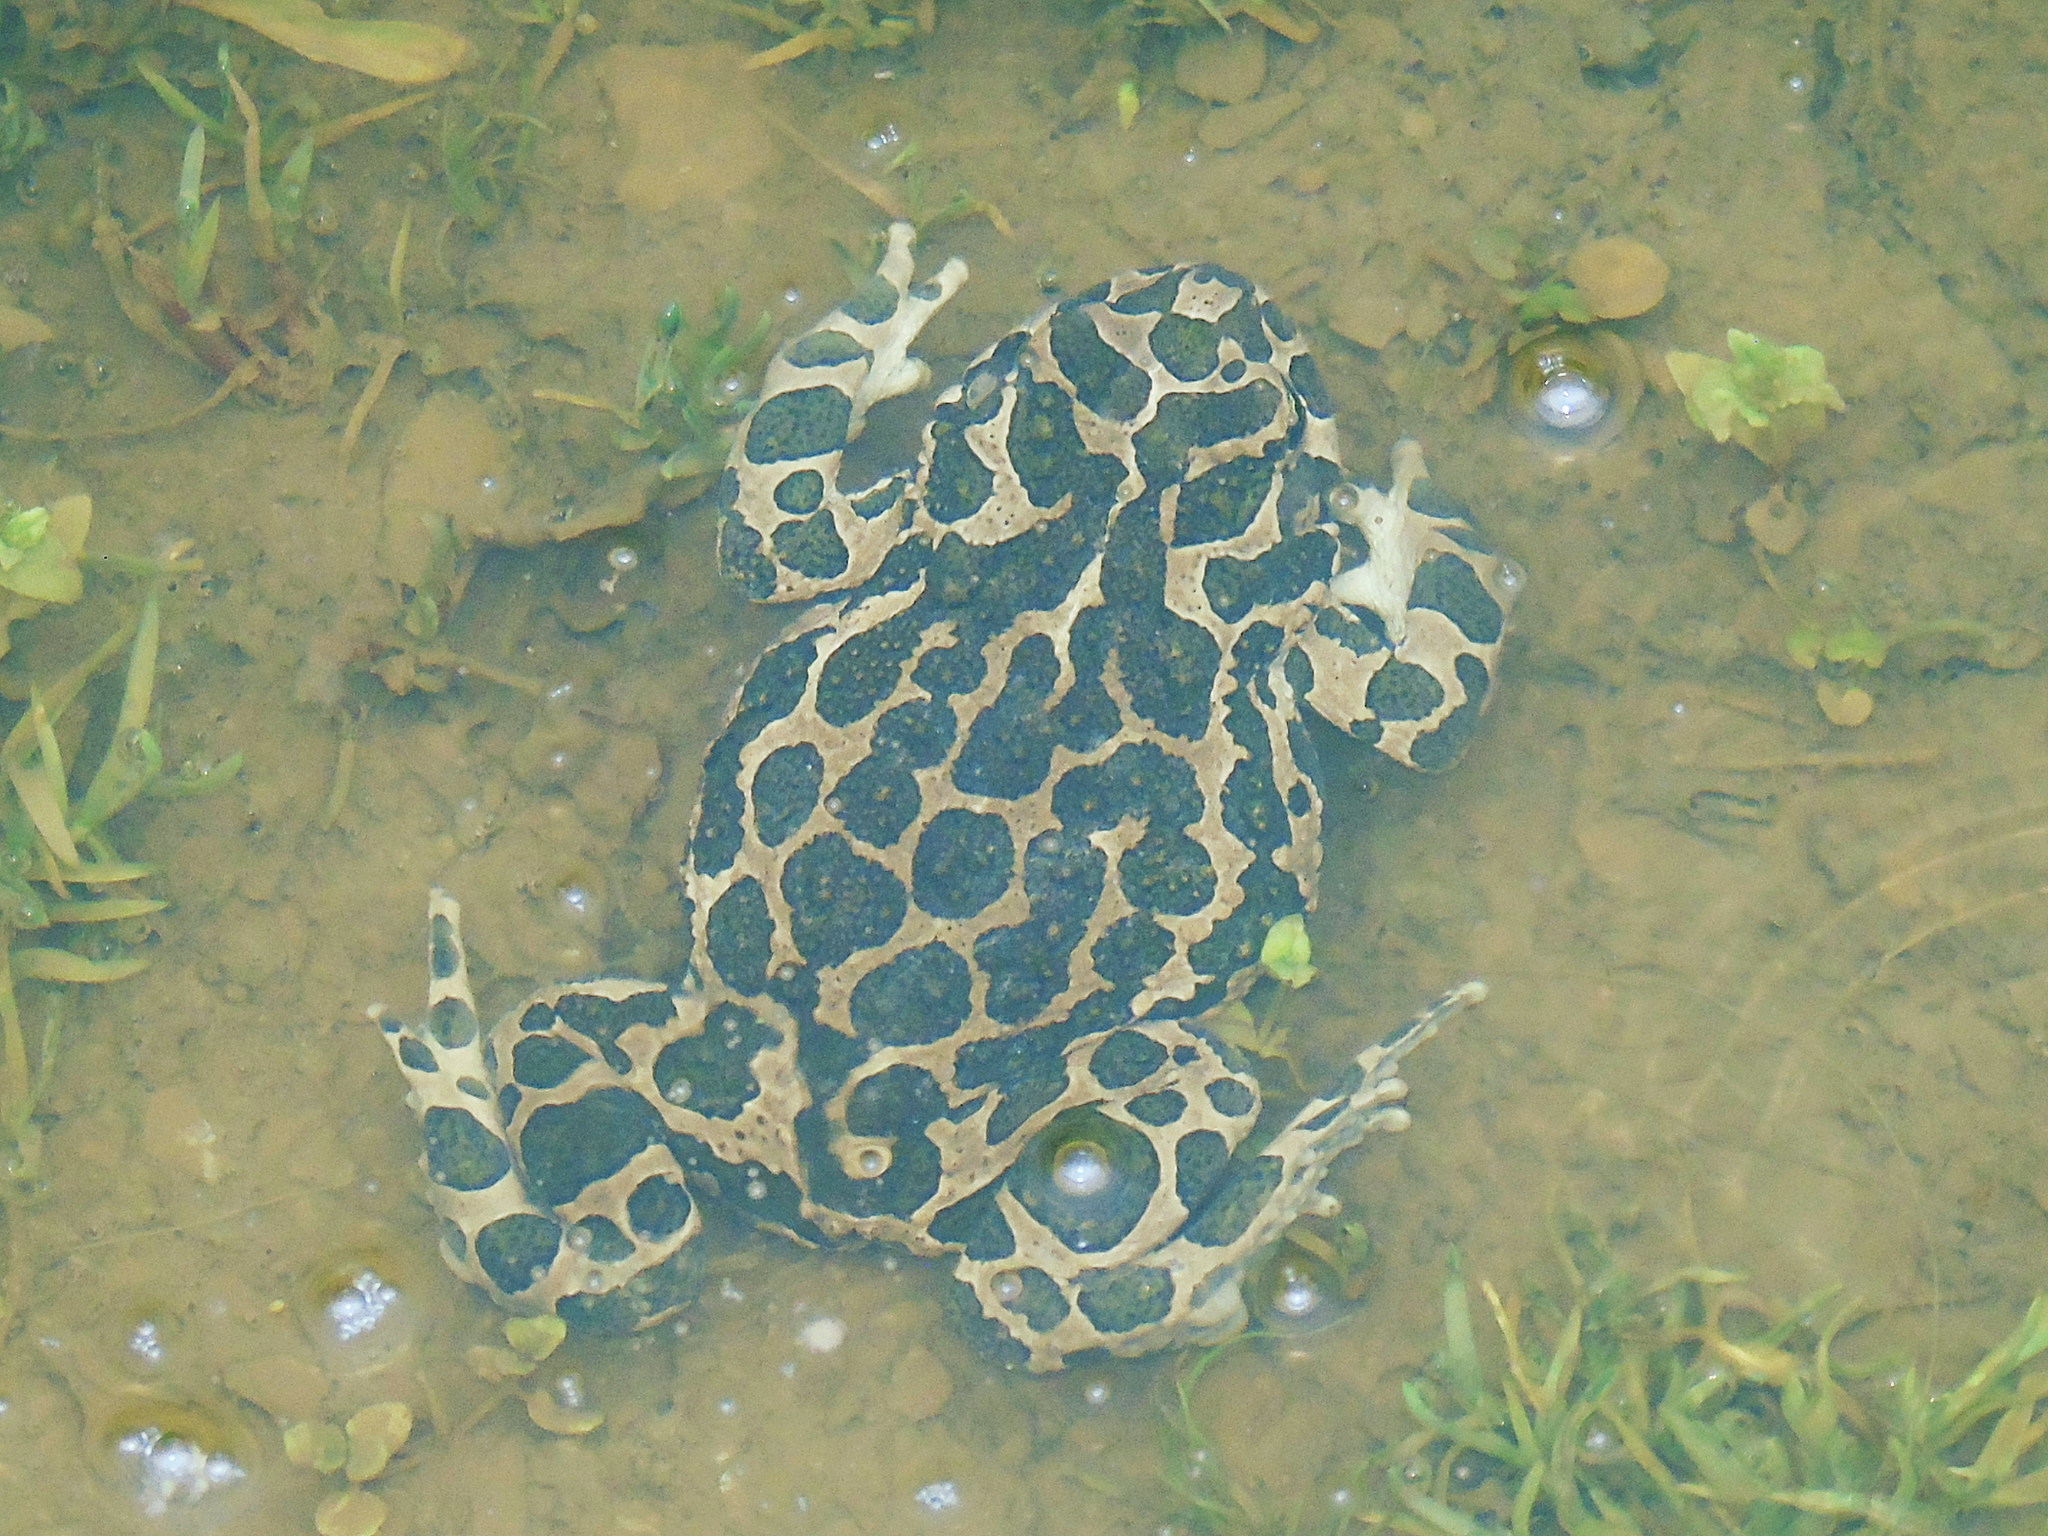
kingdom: Animalia
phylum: Chordata
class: Amphibia
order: Anura
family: Bufonidae
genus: Bufotes
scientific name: Bufotes viridis
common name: European green toad
